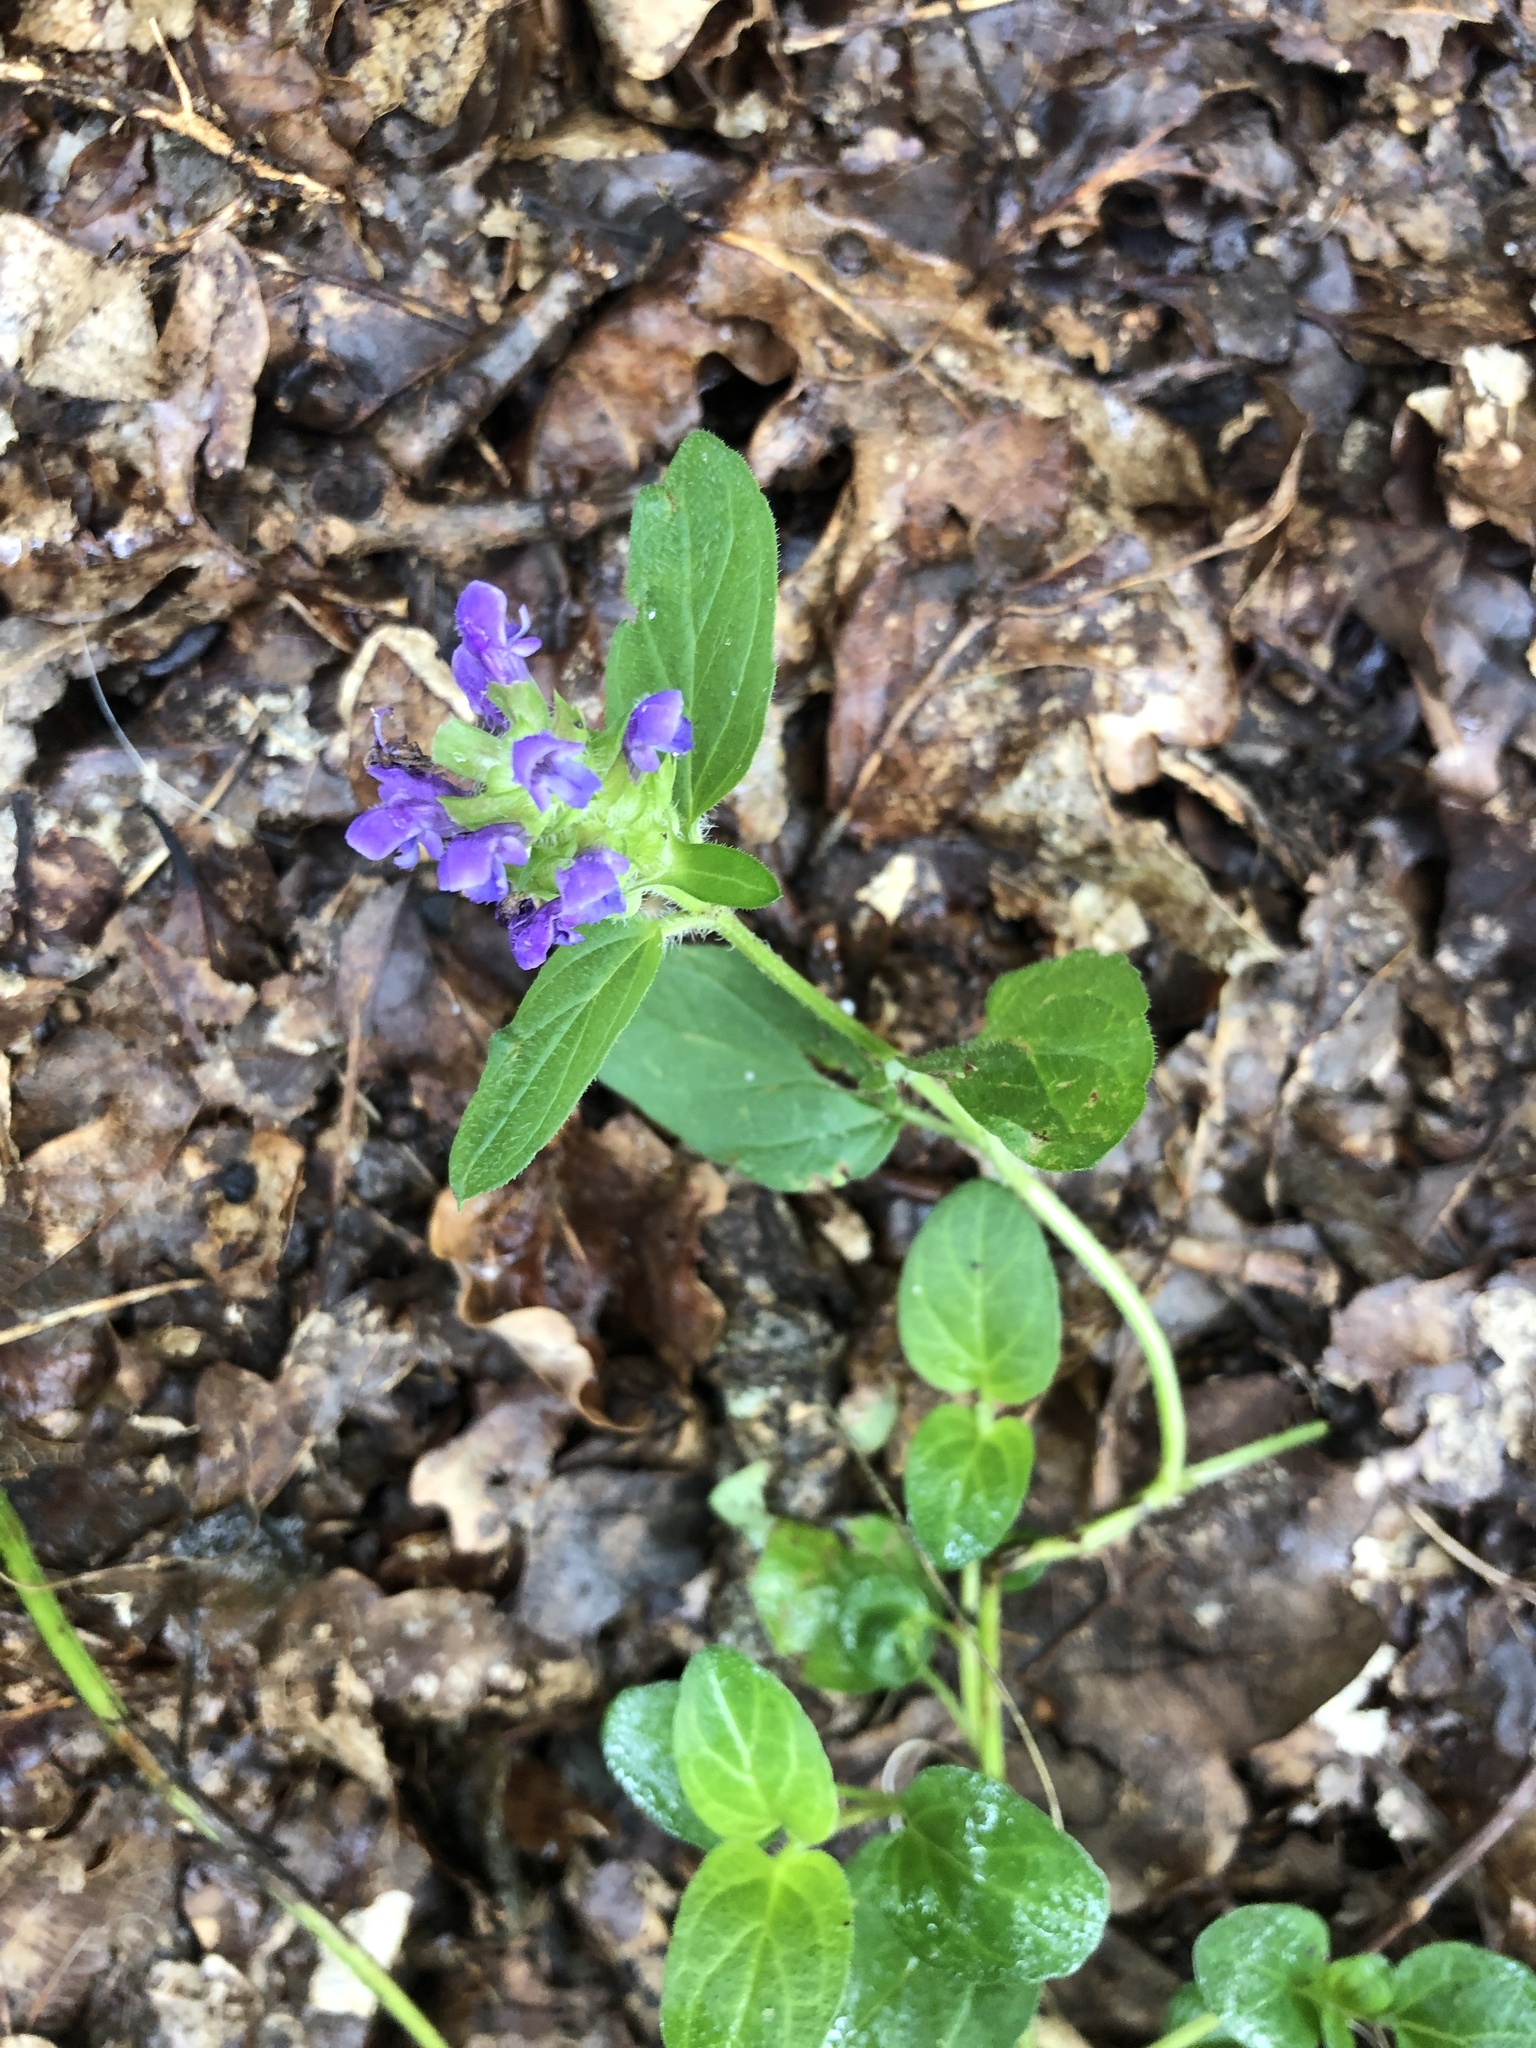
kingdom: Plantae
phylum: Tracheophyta
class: Magnoliopsida
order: Lamiales
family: Lamiaceae
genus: Prunella
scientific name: Prunella vulgaris
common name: Heal-all
